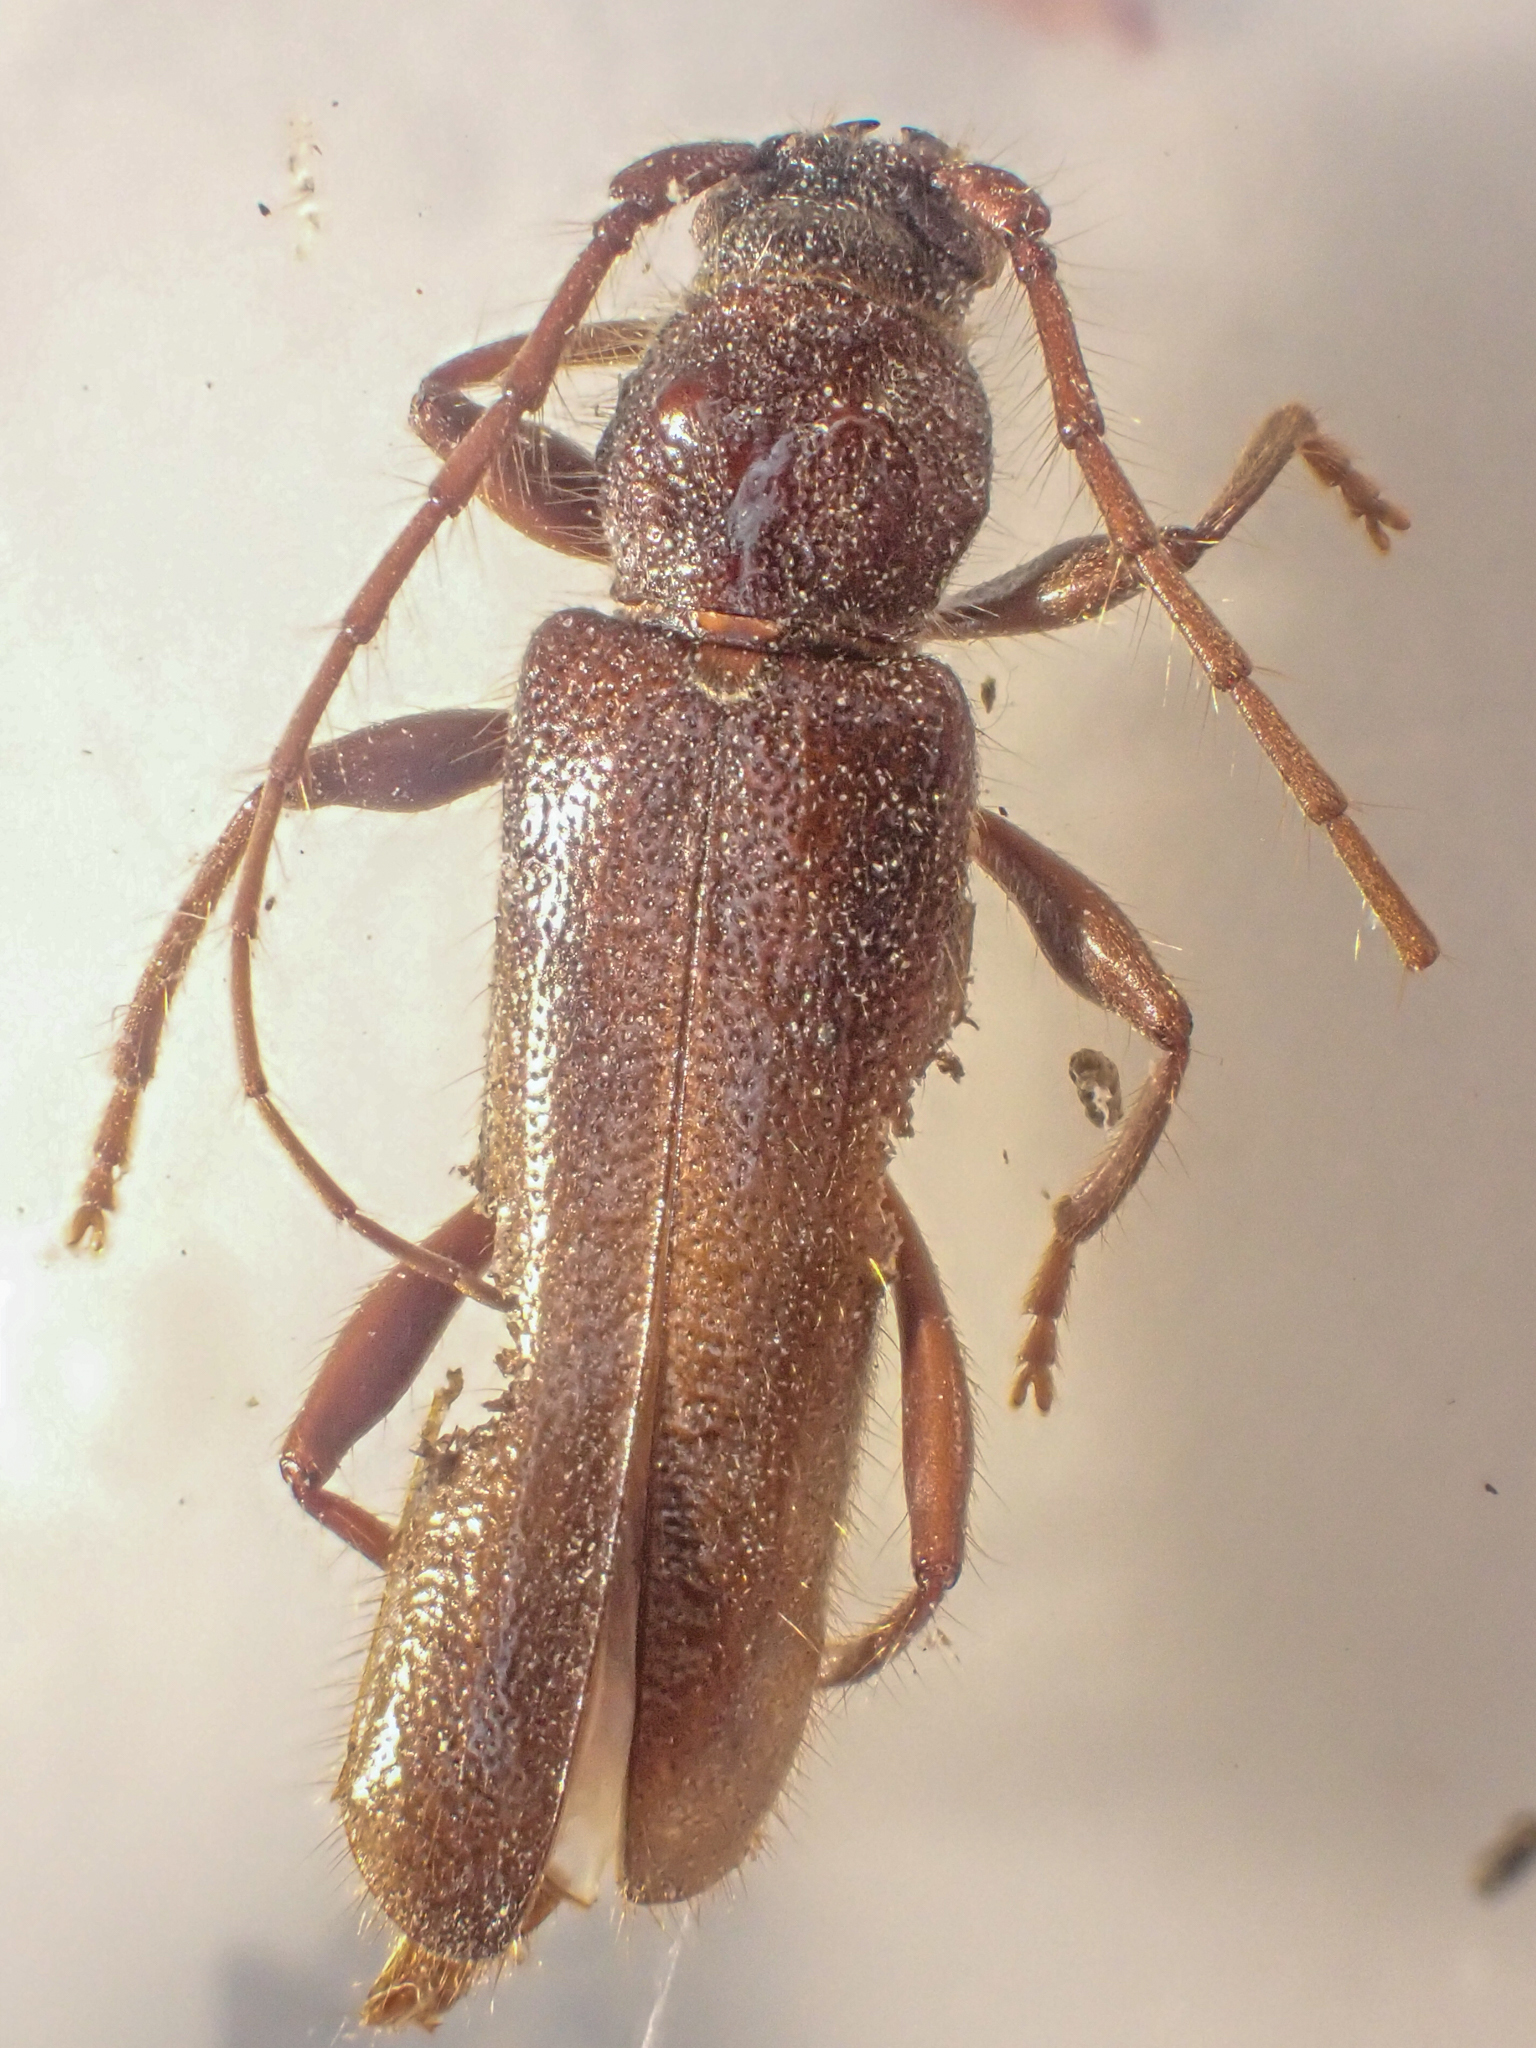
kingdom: Animalia
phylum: Arthropoda
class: Insecta
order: Coleoptera
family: Cerambycidae
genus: Meganoplium
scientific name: Meganoplium imbelle
